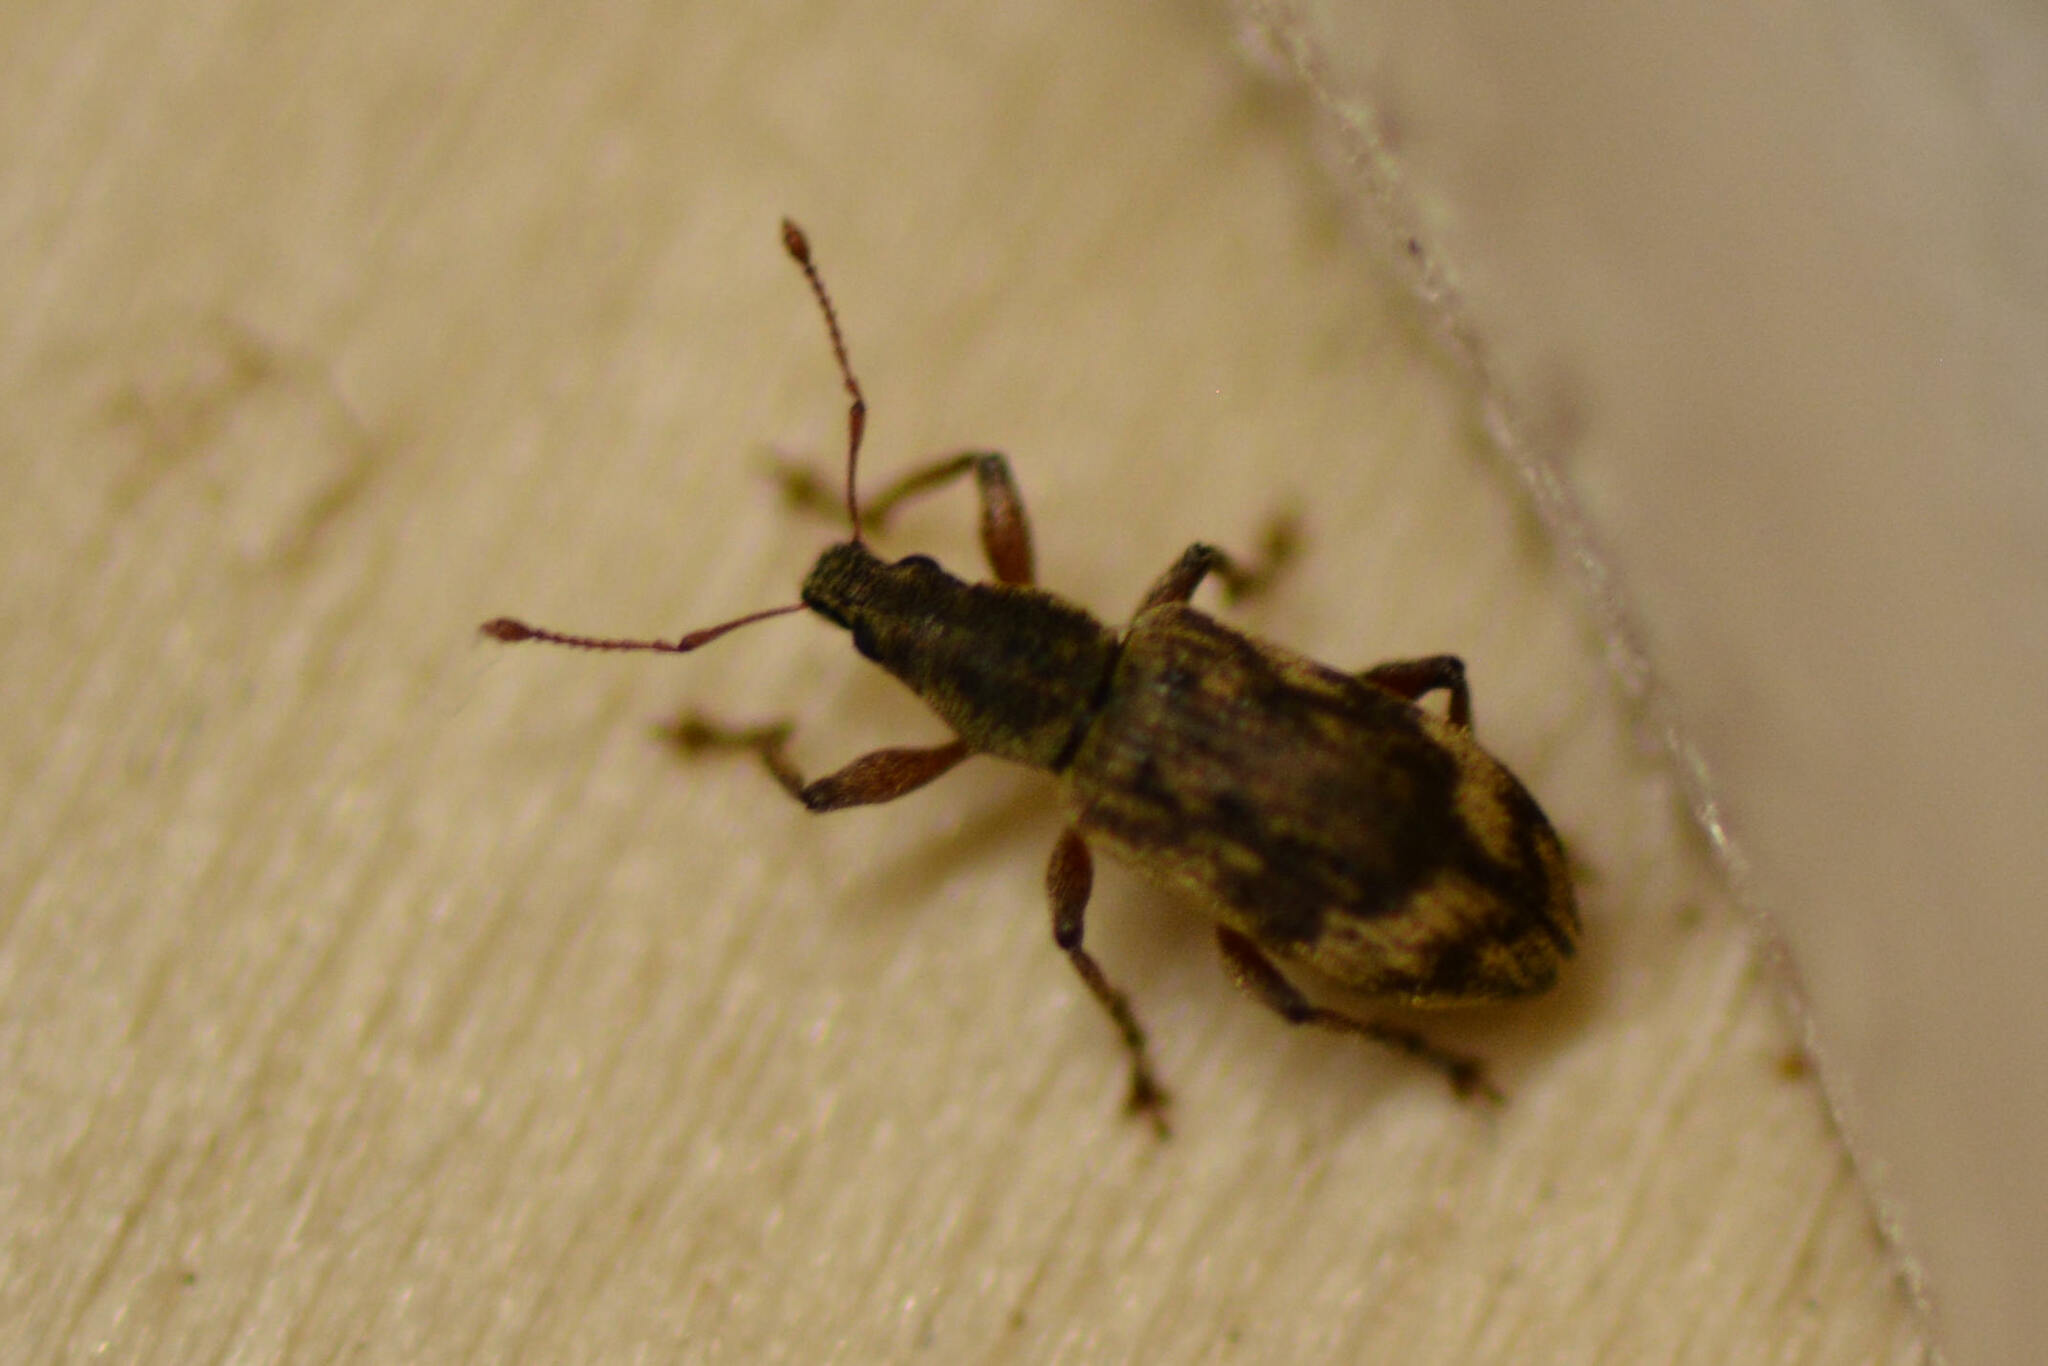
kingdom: Animalia
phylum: Arthropoda
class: Insecta
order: Coleoptera
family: Curculionidae
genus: Polydrusus
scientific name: Polydrusus tereticollis
